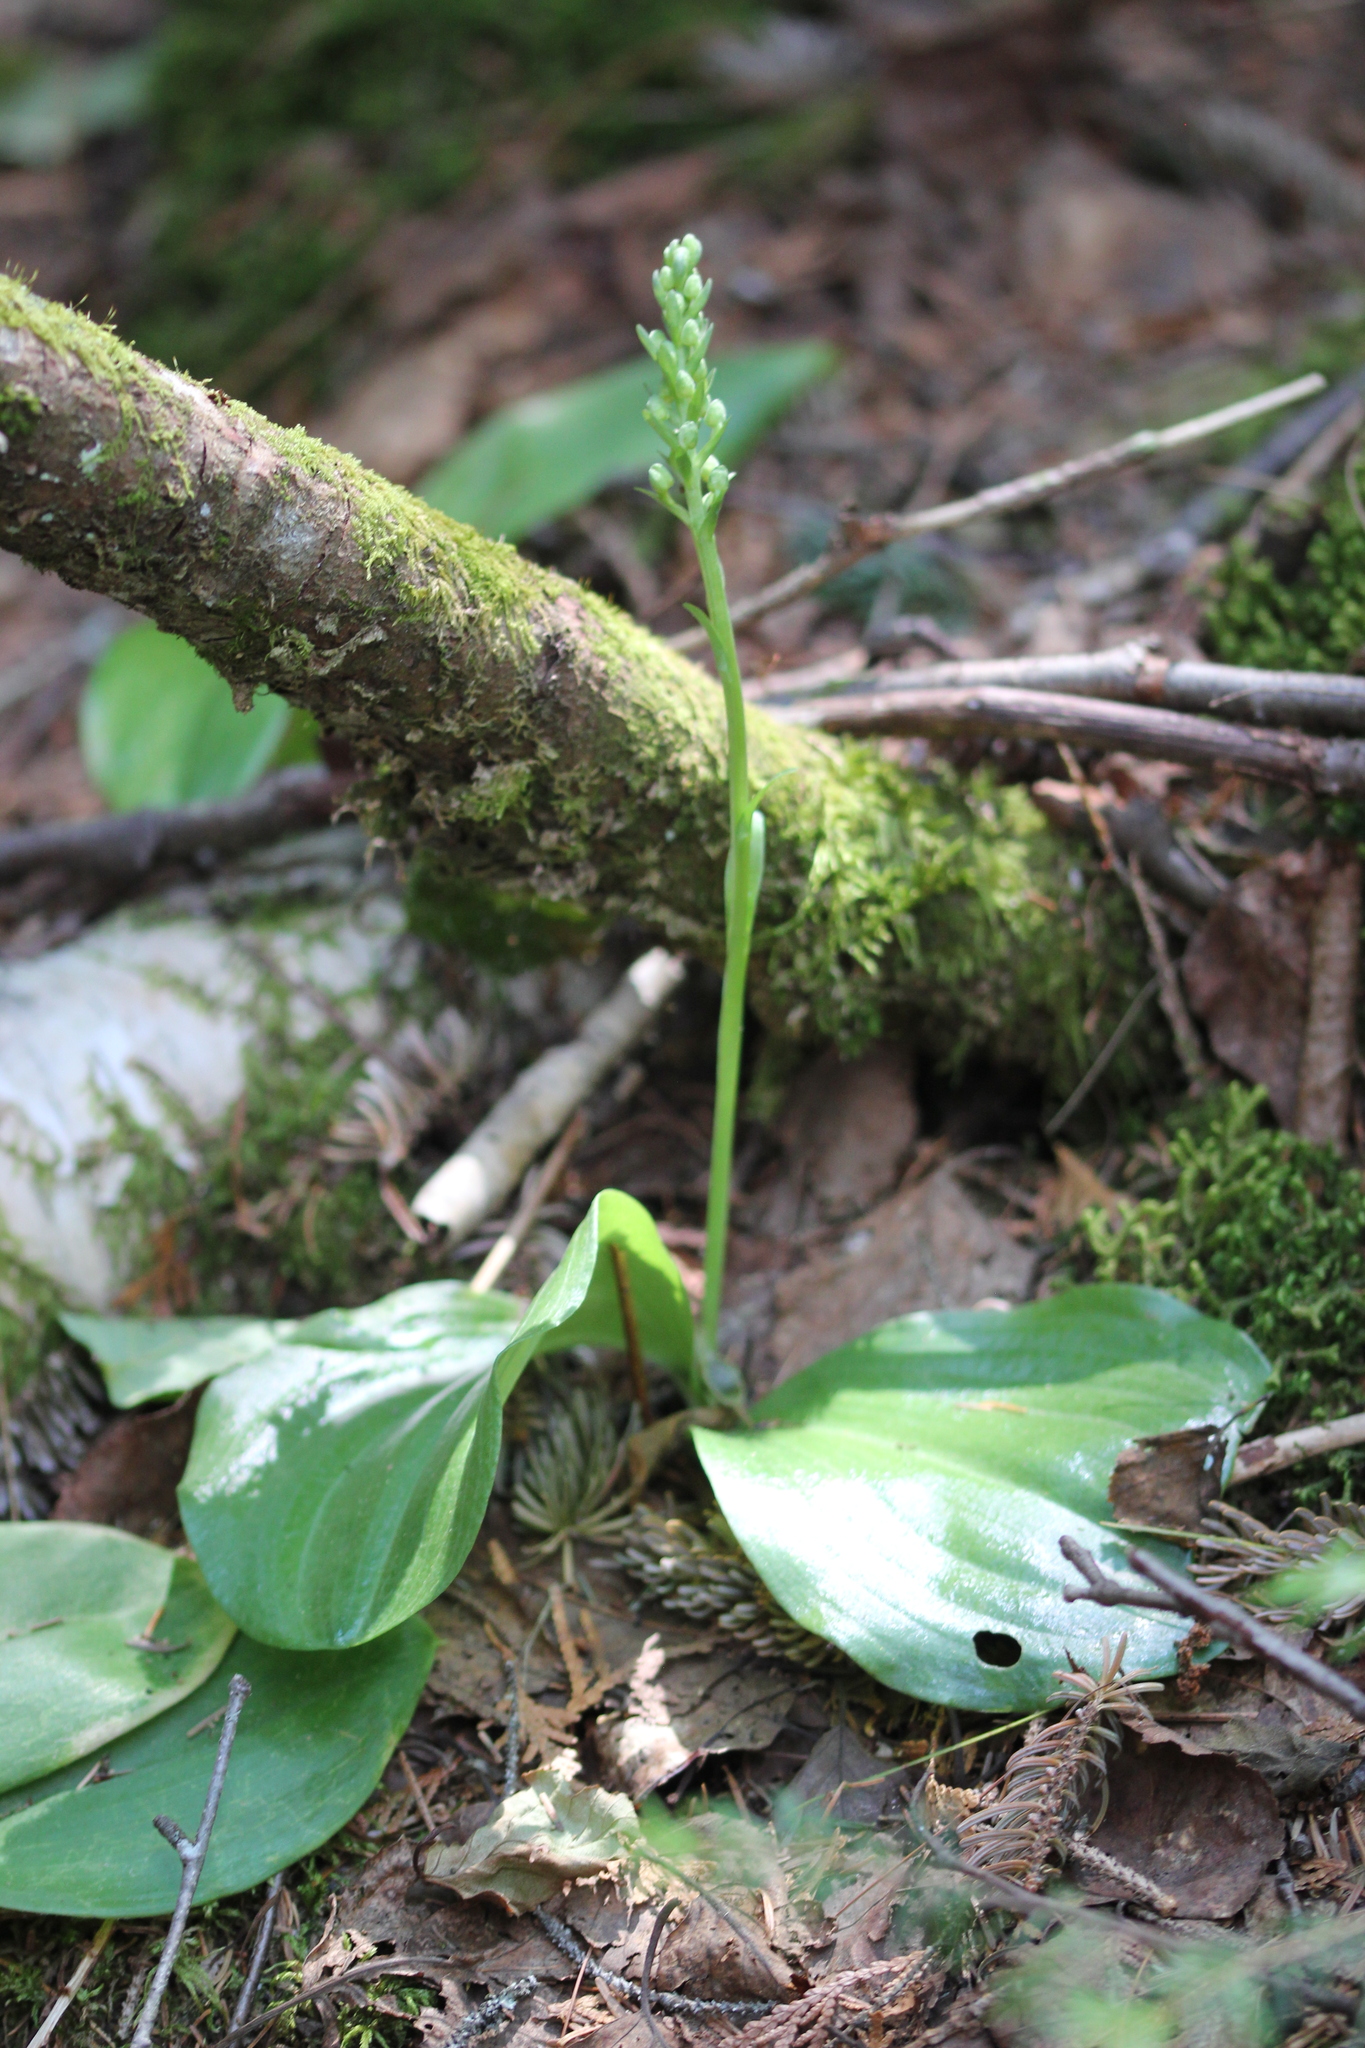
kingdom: Plantae
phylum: Tracheophyta
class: Liliopsida
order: Asparagales
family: Orchidaceae
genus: Platanthera
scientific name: Platanthera orbiculata
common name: Large round-leaved orchid
